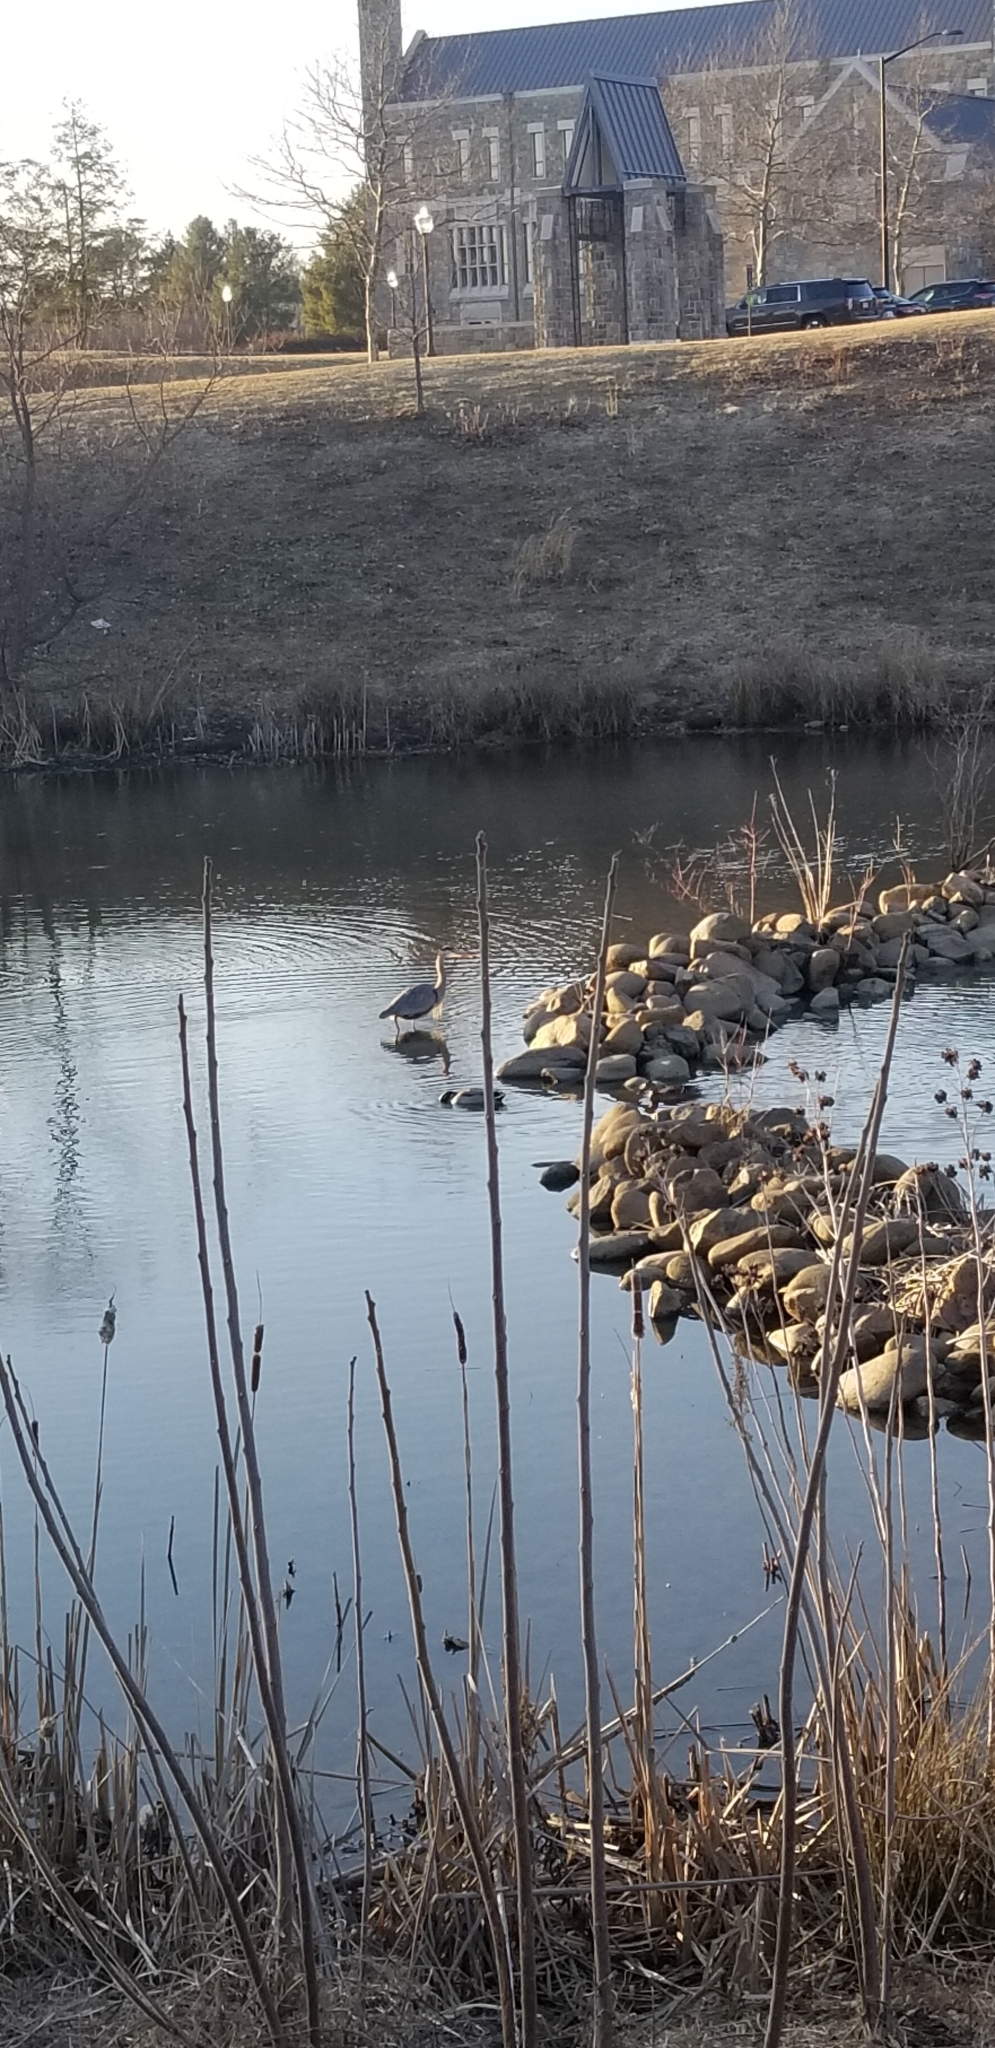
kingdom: Animalia
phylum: Chordata
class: Aves
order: Pelecaniformes
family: Ardeidae
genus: Ardea
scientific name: Ardea herodias
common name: Great blue heron
